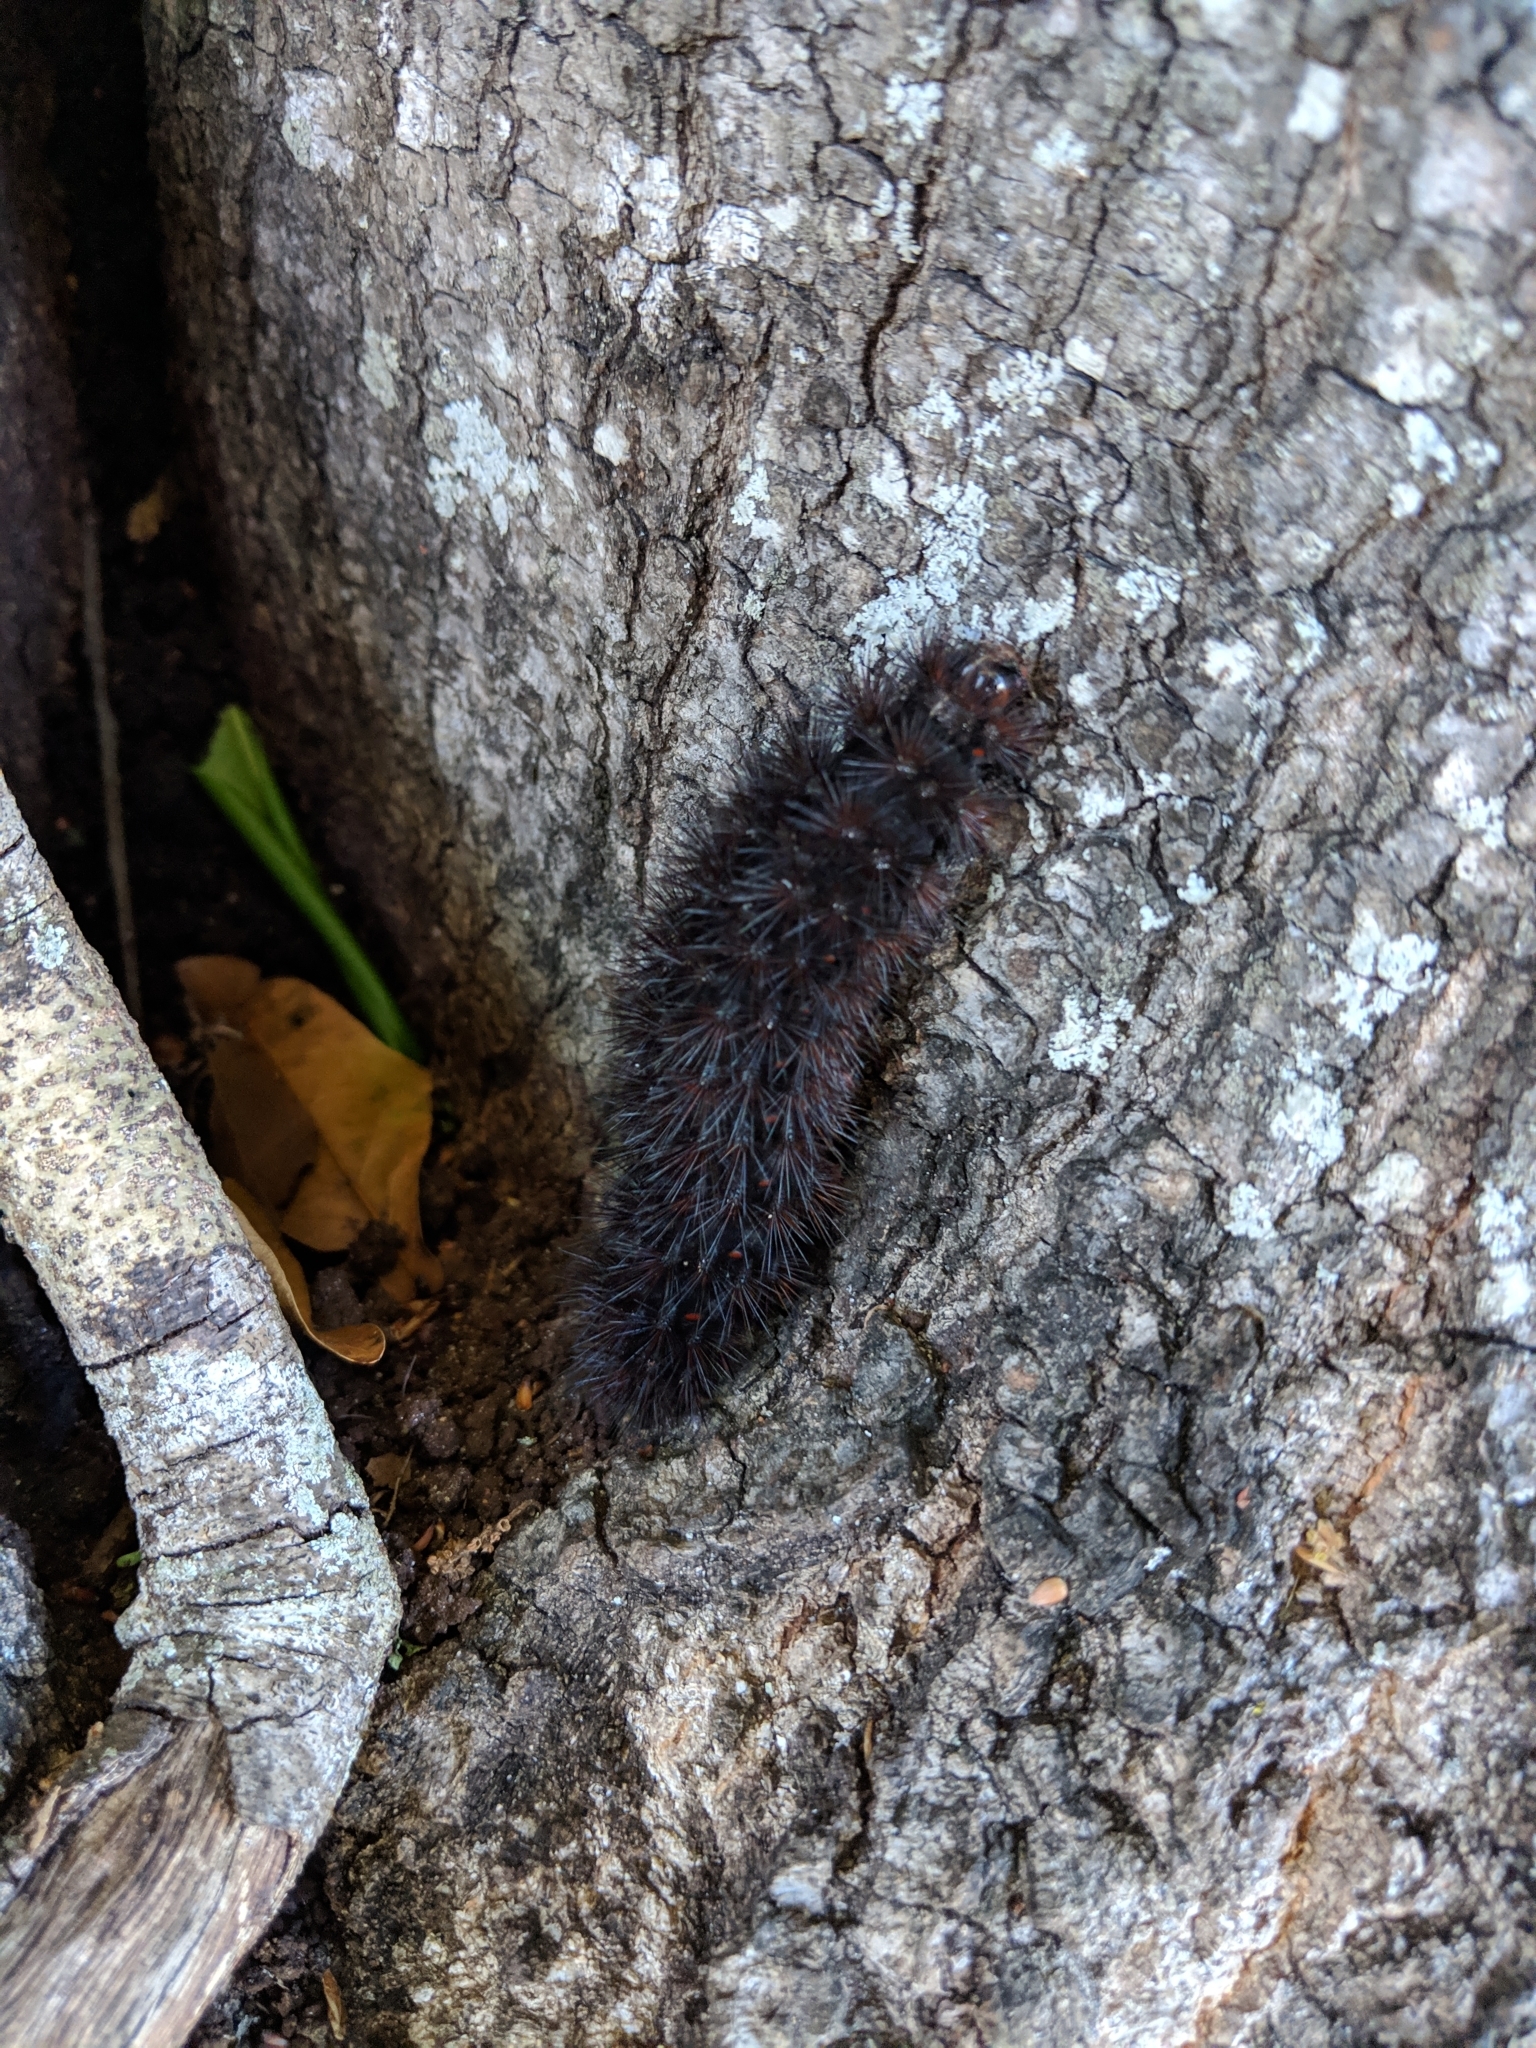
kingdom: Animalia
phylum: Arthropoda
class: Insecta
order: Lepidoptera
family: Erebidae
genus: Hypercompe
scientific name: Hypercompe scribonia
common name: Giant leopard moth
